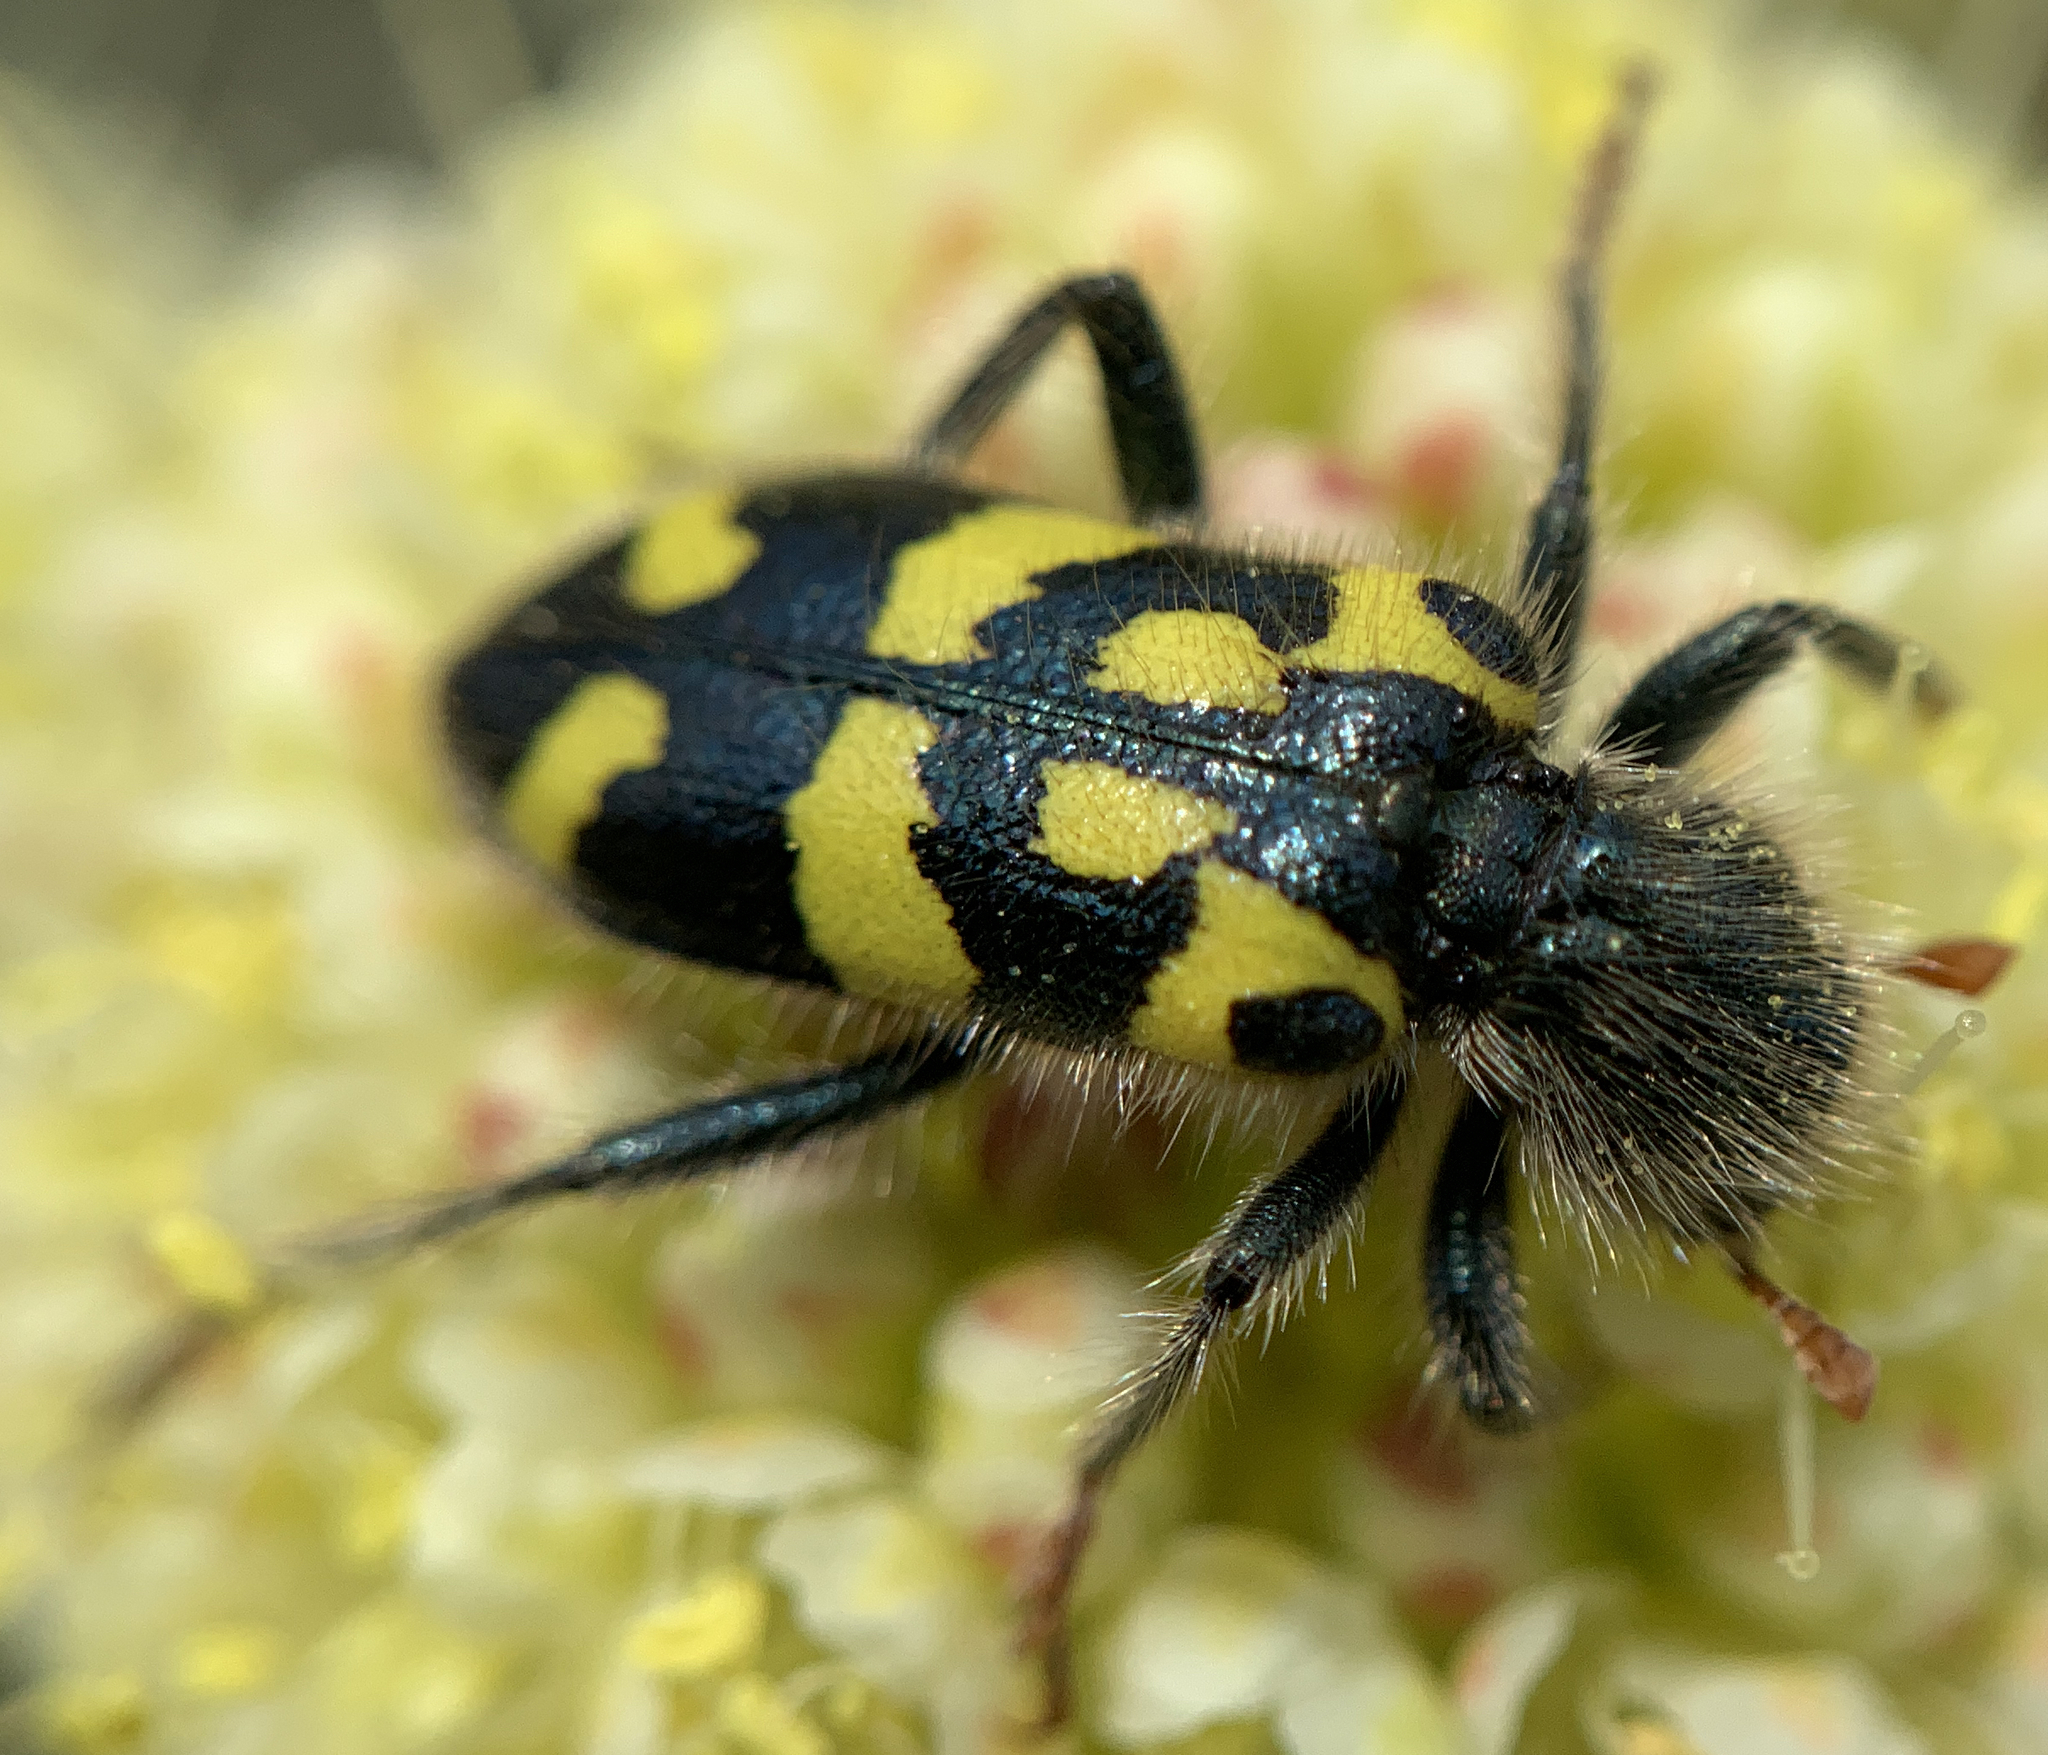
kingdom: Animalia
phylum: Arthropoda
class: Insecta
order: Coleoptera
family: Cleridae
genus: Trichodes
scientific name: Trichodes ornatus
